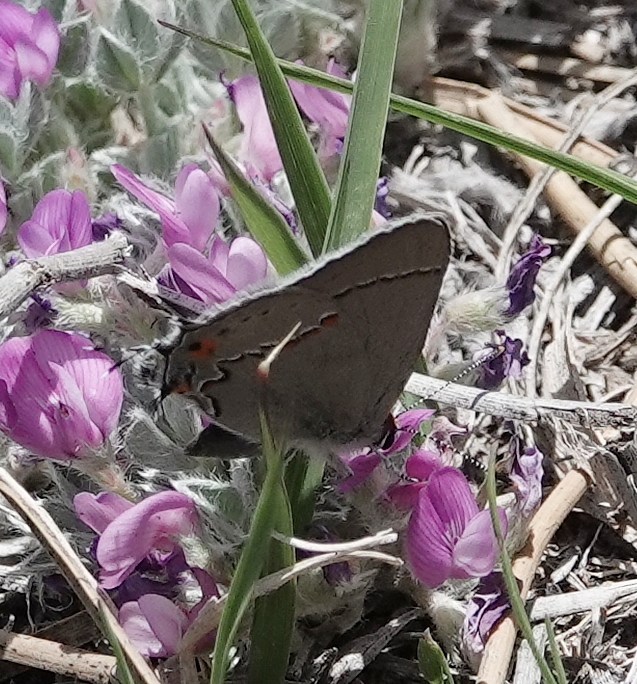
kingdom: Animalia
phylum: Arthropoda
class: Insecta
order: Lepidoptera
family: Lycaenidae
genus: Strymon
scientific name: Strymon melinus
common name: Gray hairstreak
